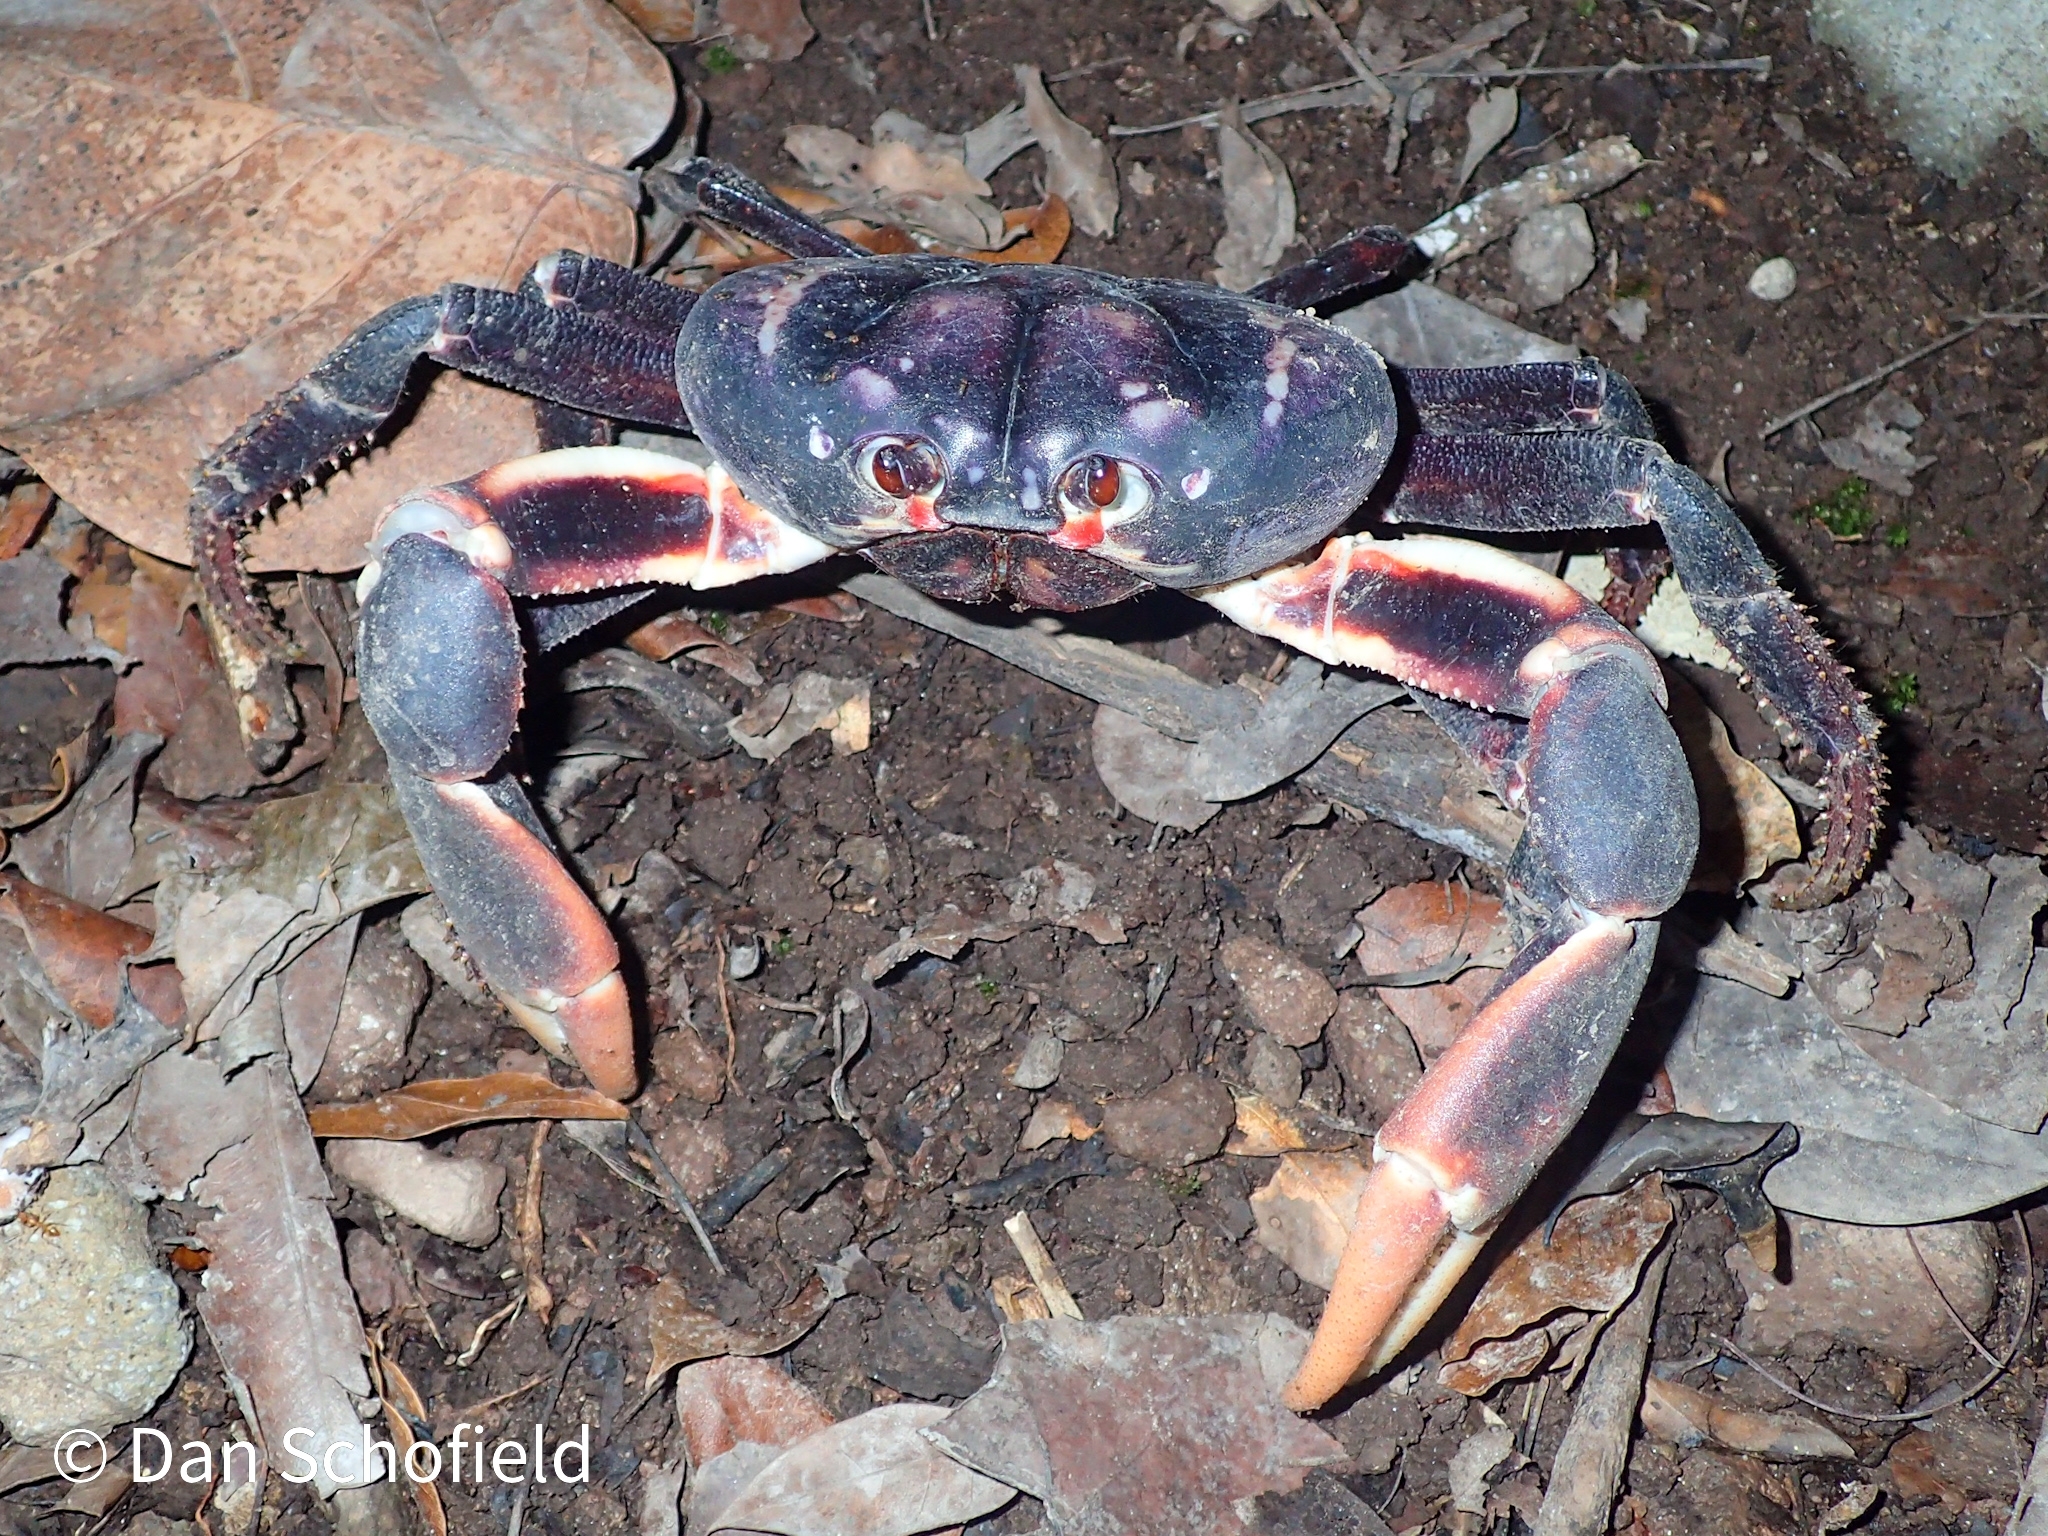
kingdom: Animalia
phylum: Arthropoda
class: Malacostraca
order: Decapoda
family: Gecarcinidae
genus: Gecarcinus
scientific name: Gecarcinus ruricola
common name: Black land crab
